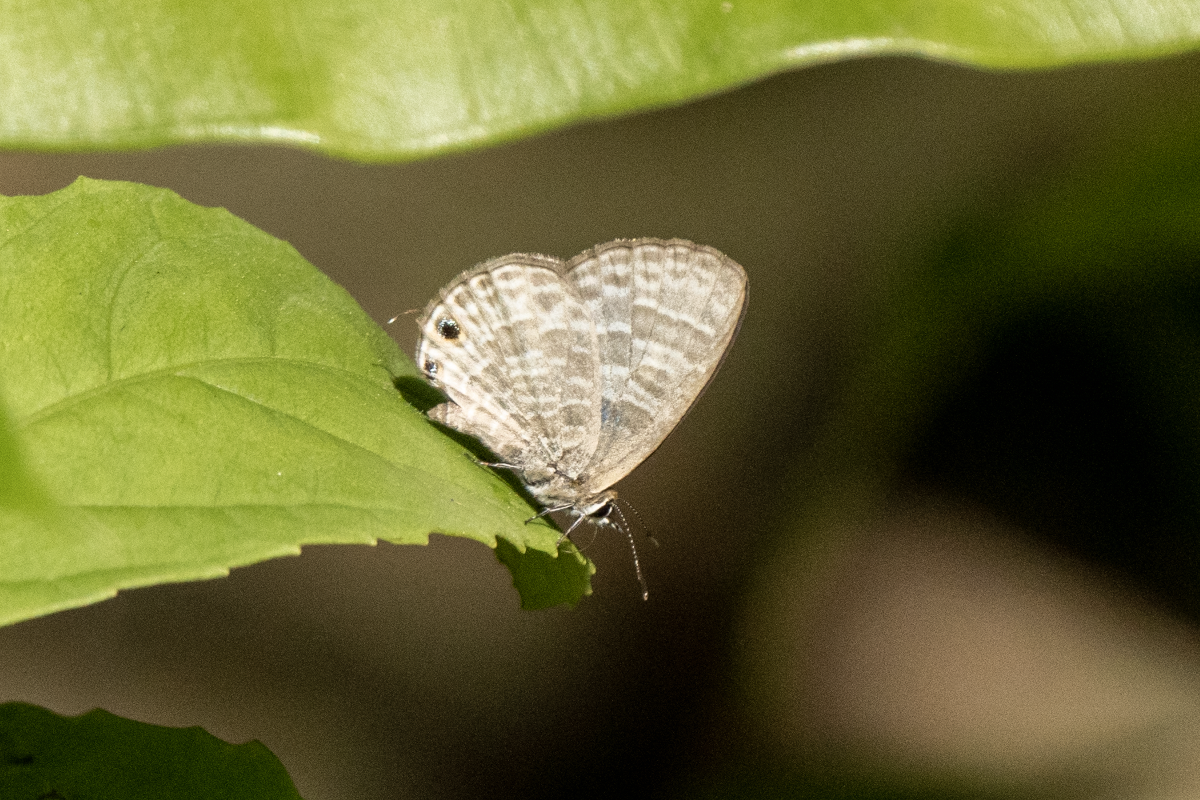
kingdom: Animalia
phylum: Arthropoda
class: Insecta
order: Lepidoptera
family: Lycaenidae
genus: Nacaduba
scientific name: Nacaduba kurava
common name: Transparent 6-line blue
